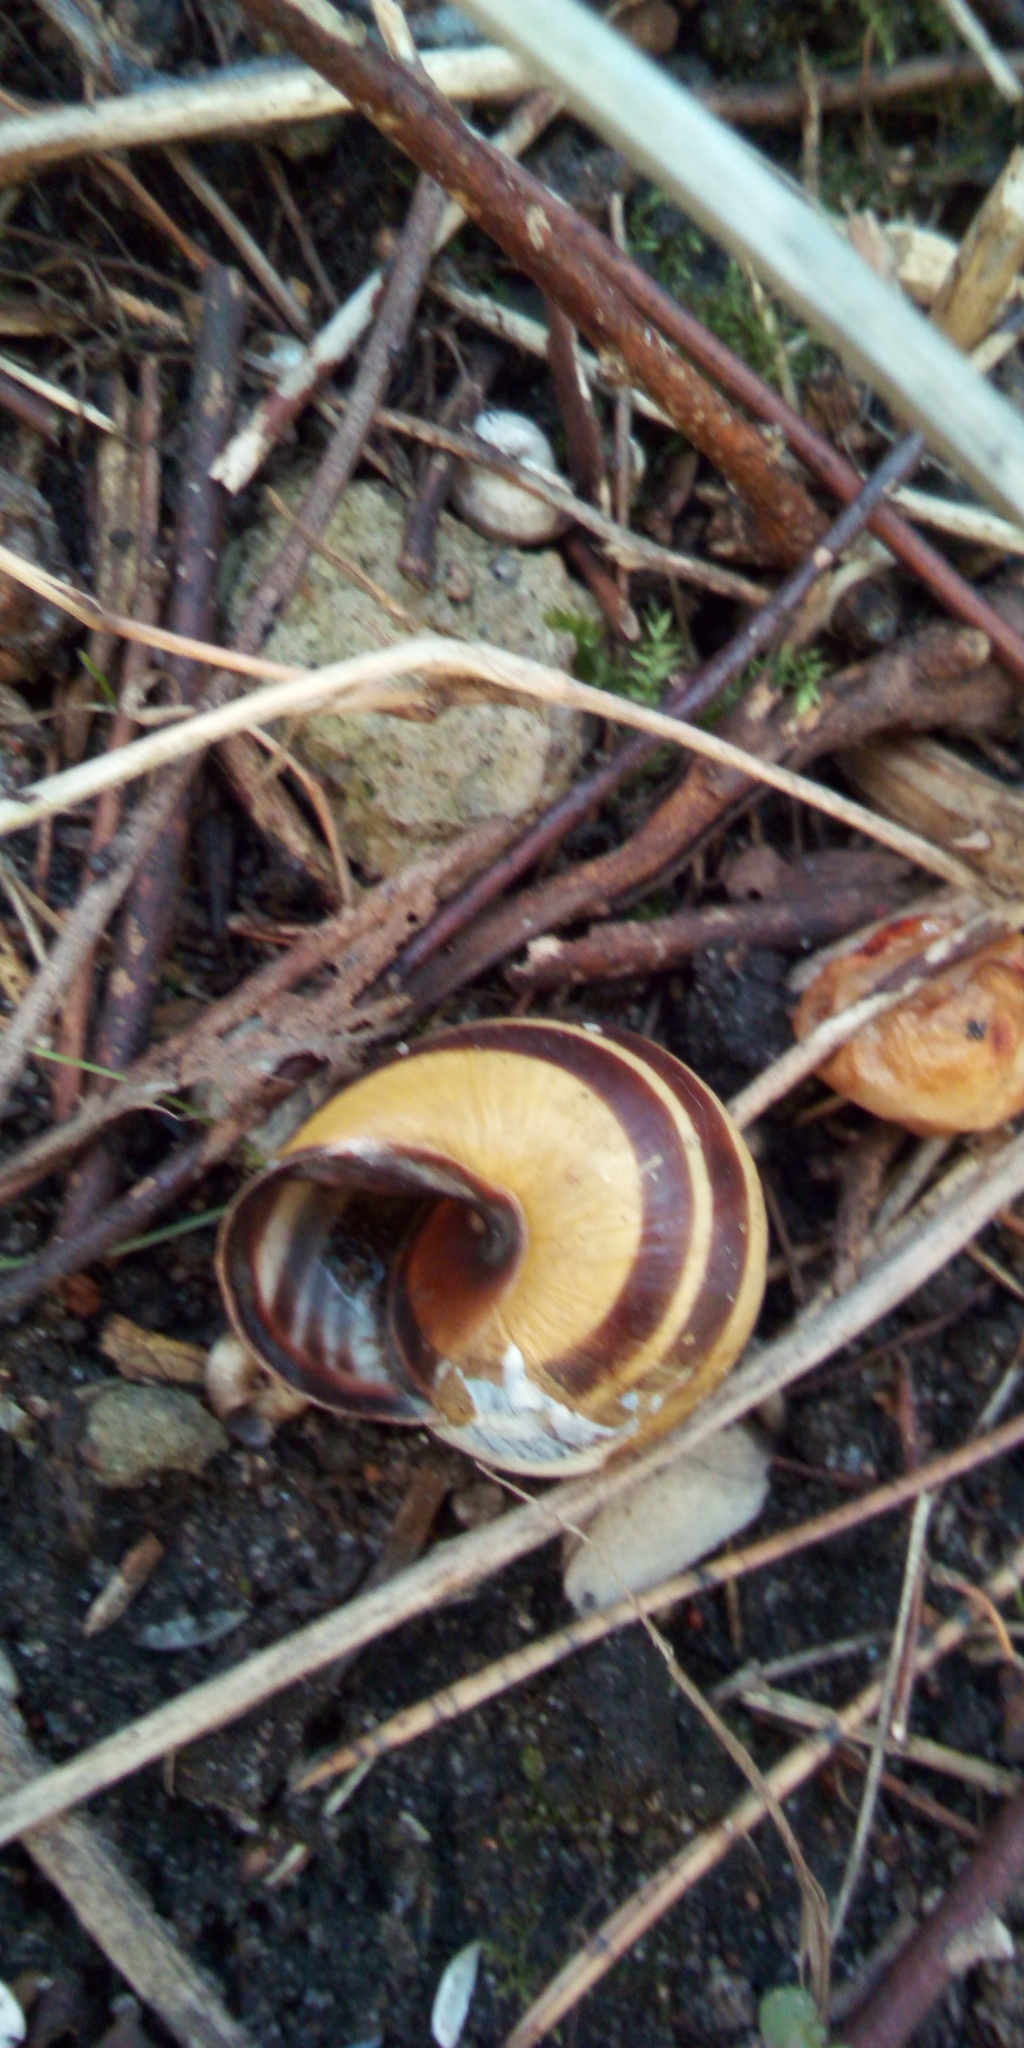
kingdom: Animalia
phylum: Mollusca
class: Gastropoda
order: Stylommatophora
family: Helicidae
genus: Cepaea
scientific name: Cepaea nemoralis
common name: Grovesnail
